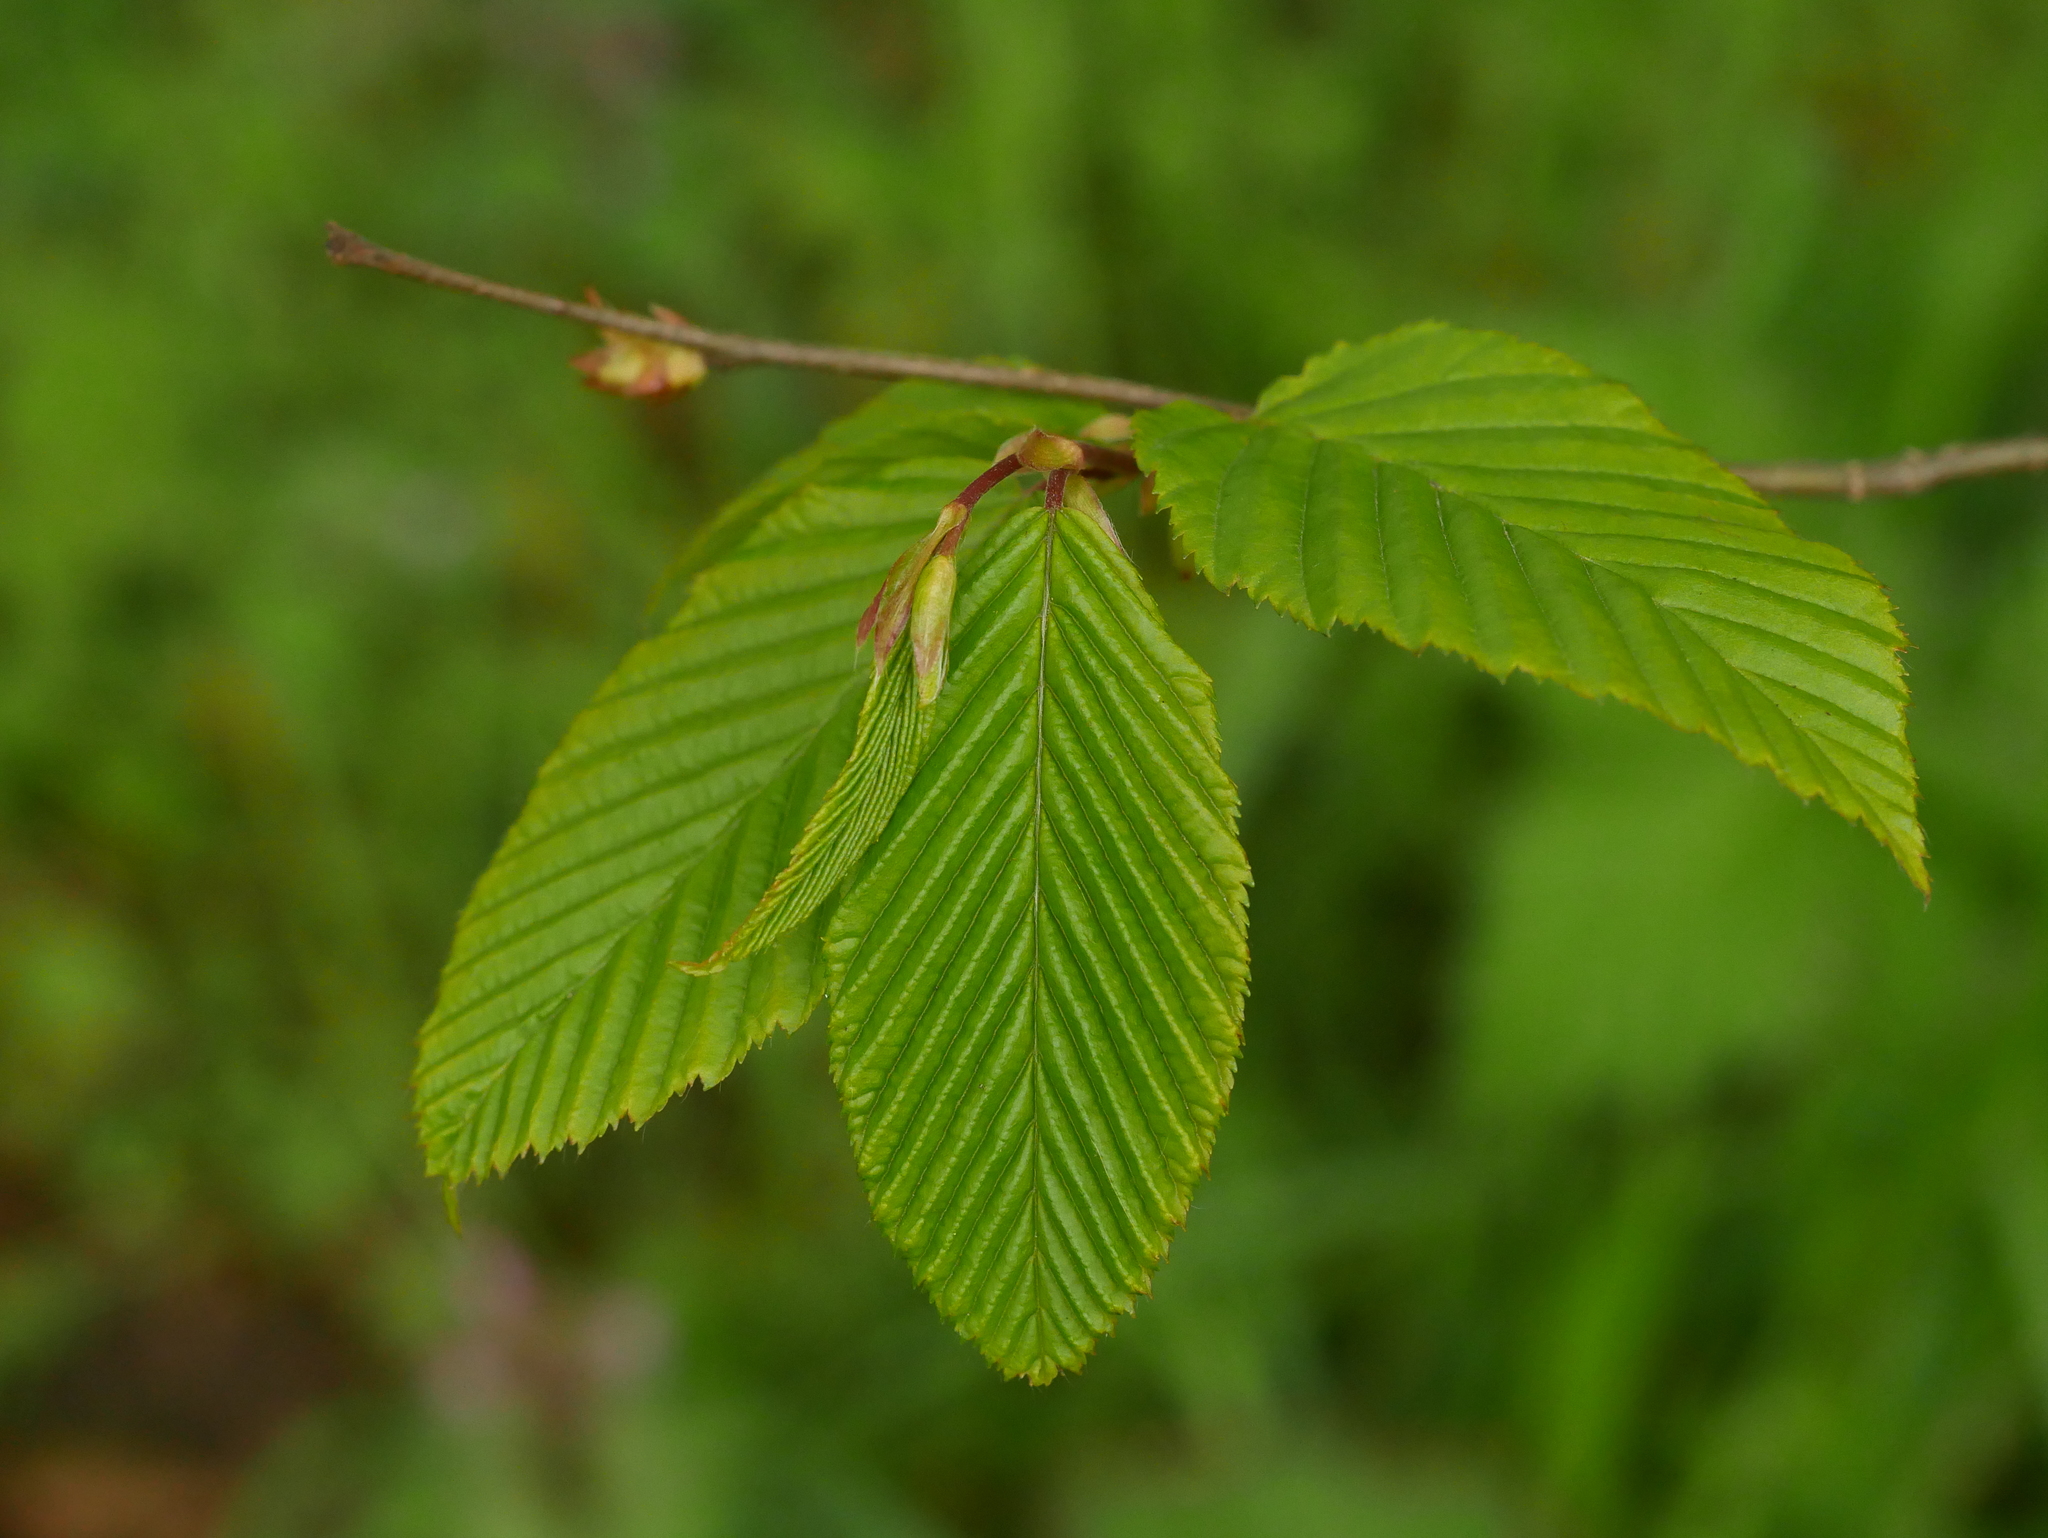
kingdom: Plantae
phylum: Tracheophyta
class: Magnoliopsida
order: Fagales
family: Betulaceae
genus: Carpinus
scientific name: Carpinus betulus
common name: Hornbeam
